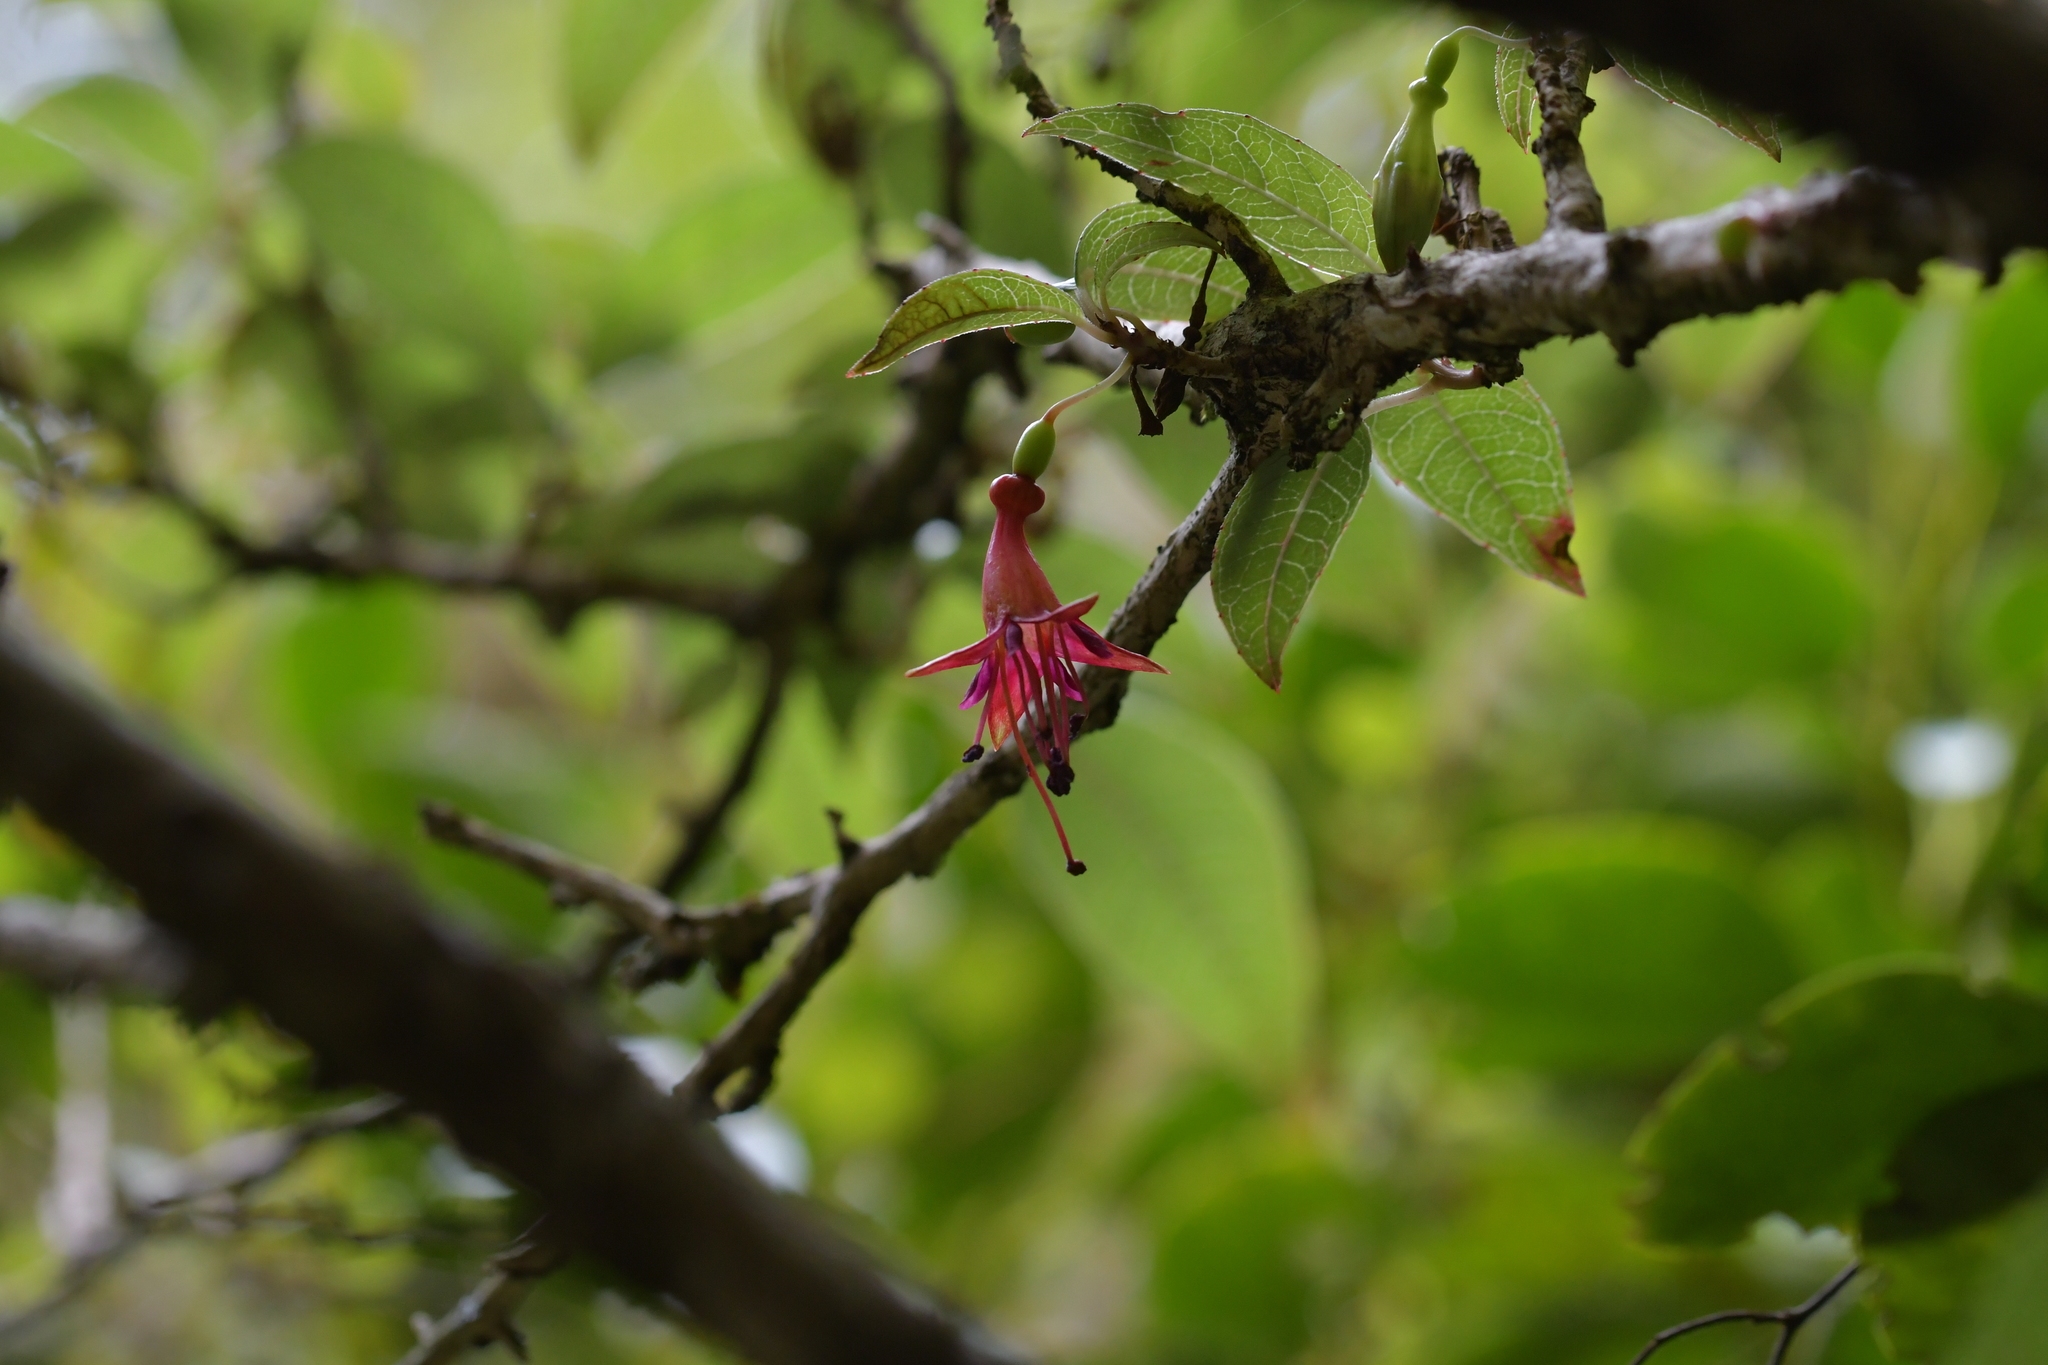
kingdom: Plantae
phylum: Tracheophyta
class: Magnoliopsida
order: Myrtales
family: Onagraceae
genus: Fuchsia
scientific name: Fuchsia excorticata
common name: Tree fuchsia
